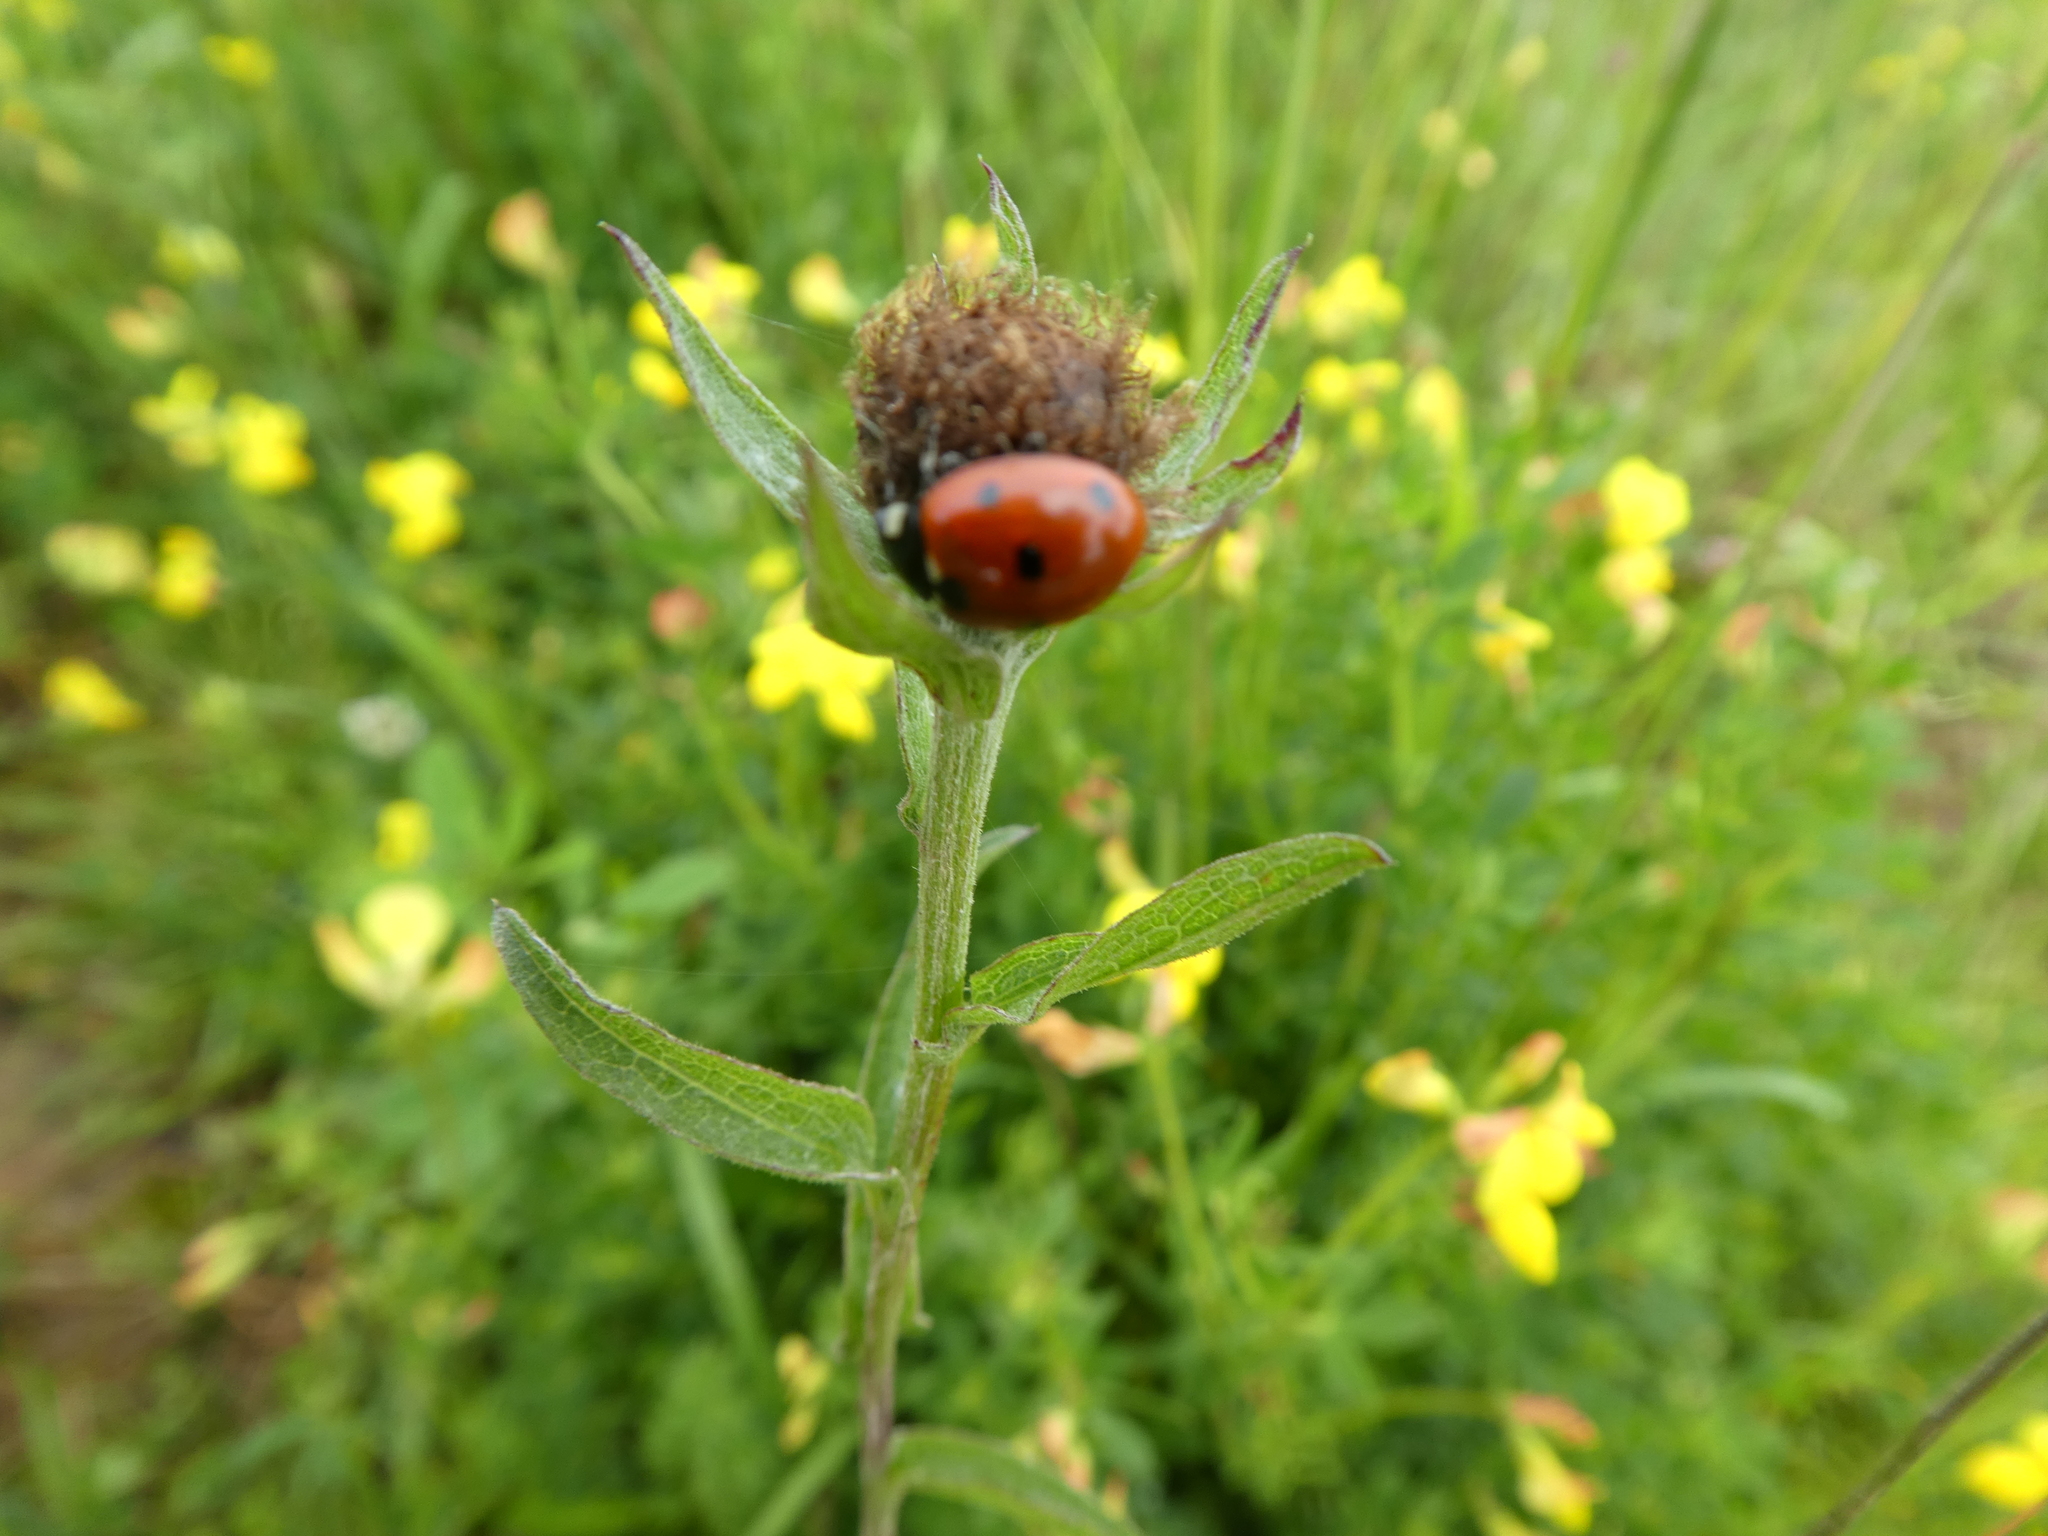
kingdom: Animalia
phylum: Arthropoda
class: Insecta
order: Coleoptera
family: Coccinellidae
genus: Coccinella
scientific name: Coccinella septempunctata
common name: Sevenspotted lady beetle
